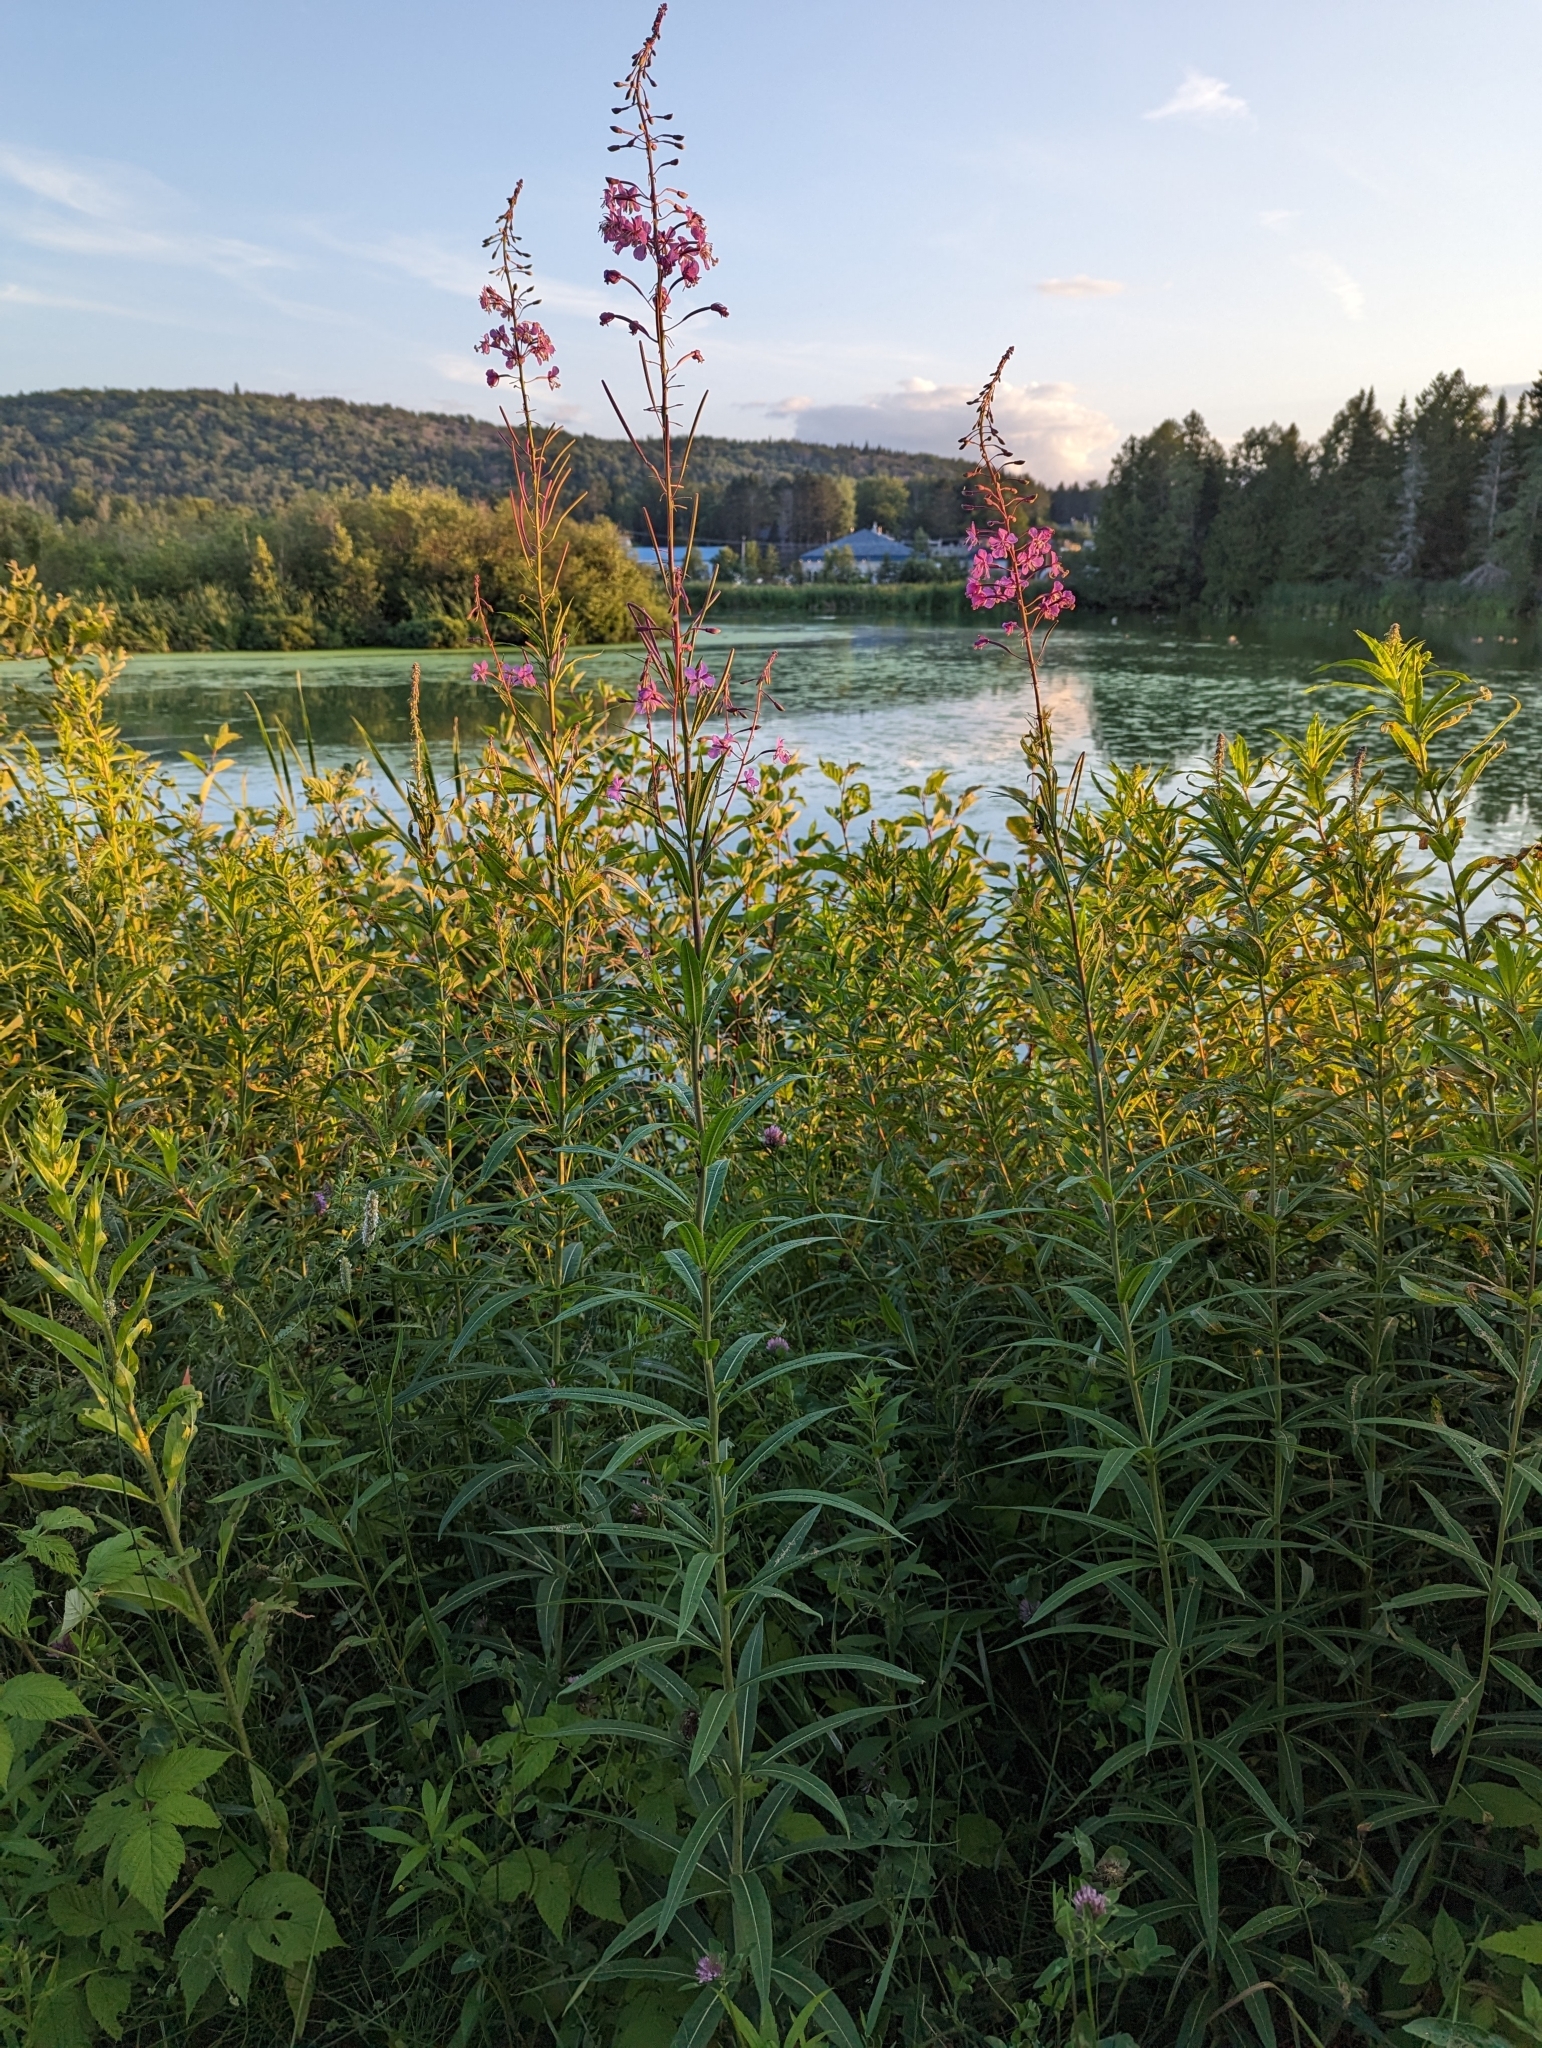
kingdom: Plantae
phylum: Tracheophyta
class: Magnoliopsida
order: Myrtales
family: Onagraceae
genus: Chamaenerion
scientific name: Chamaenerion angustifolium
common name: Fireweed
